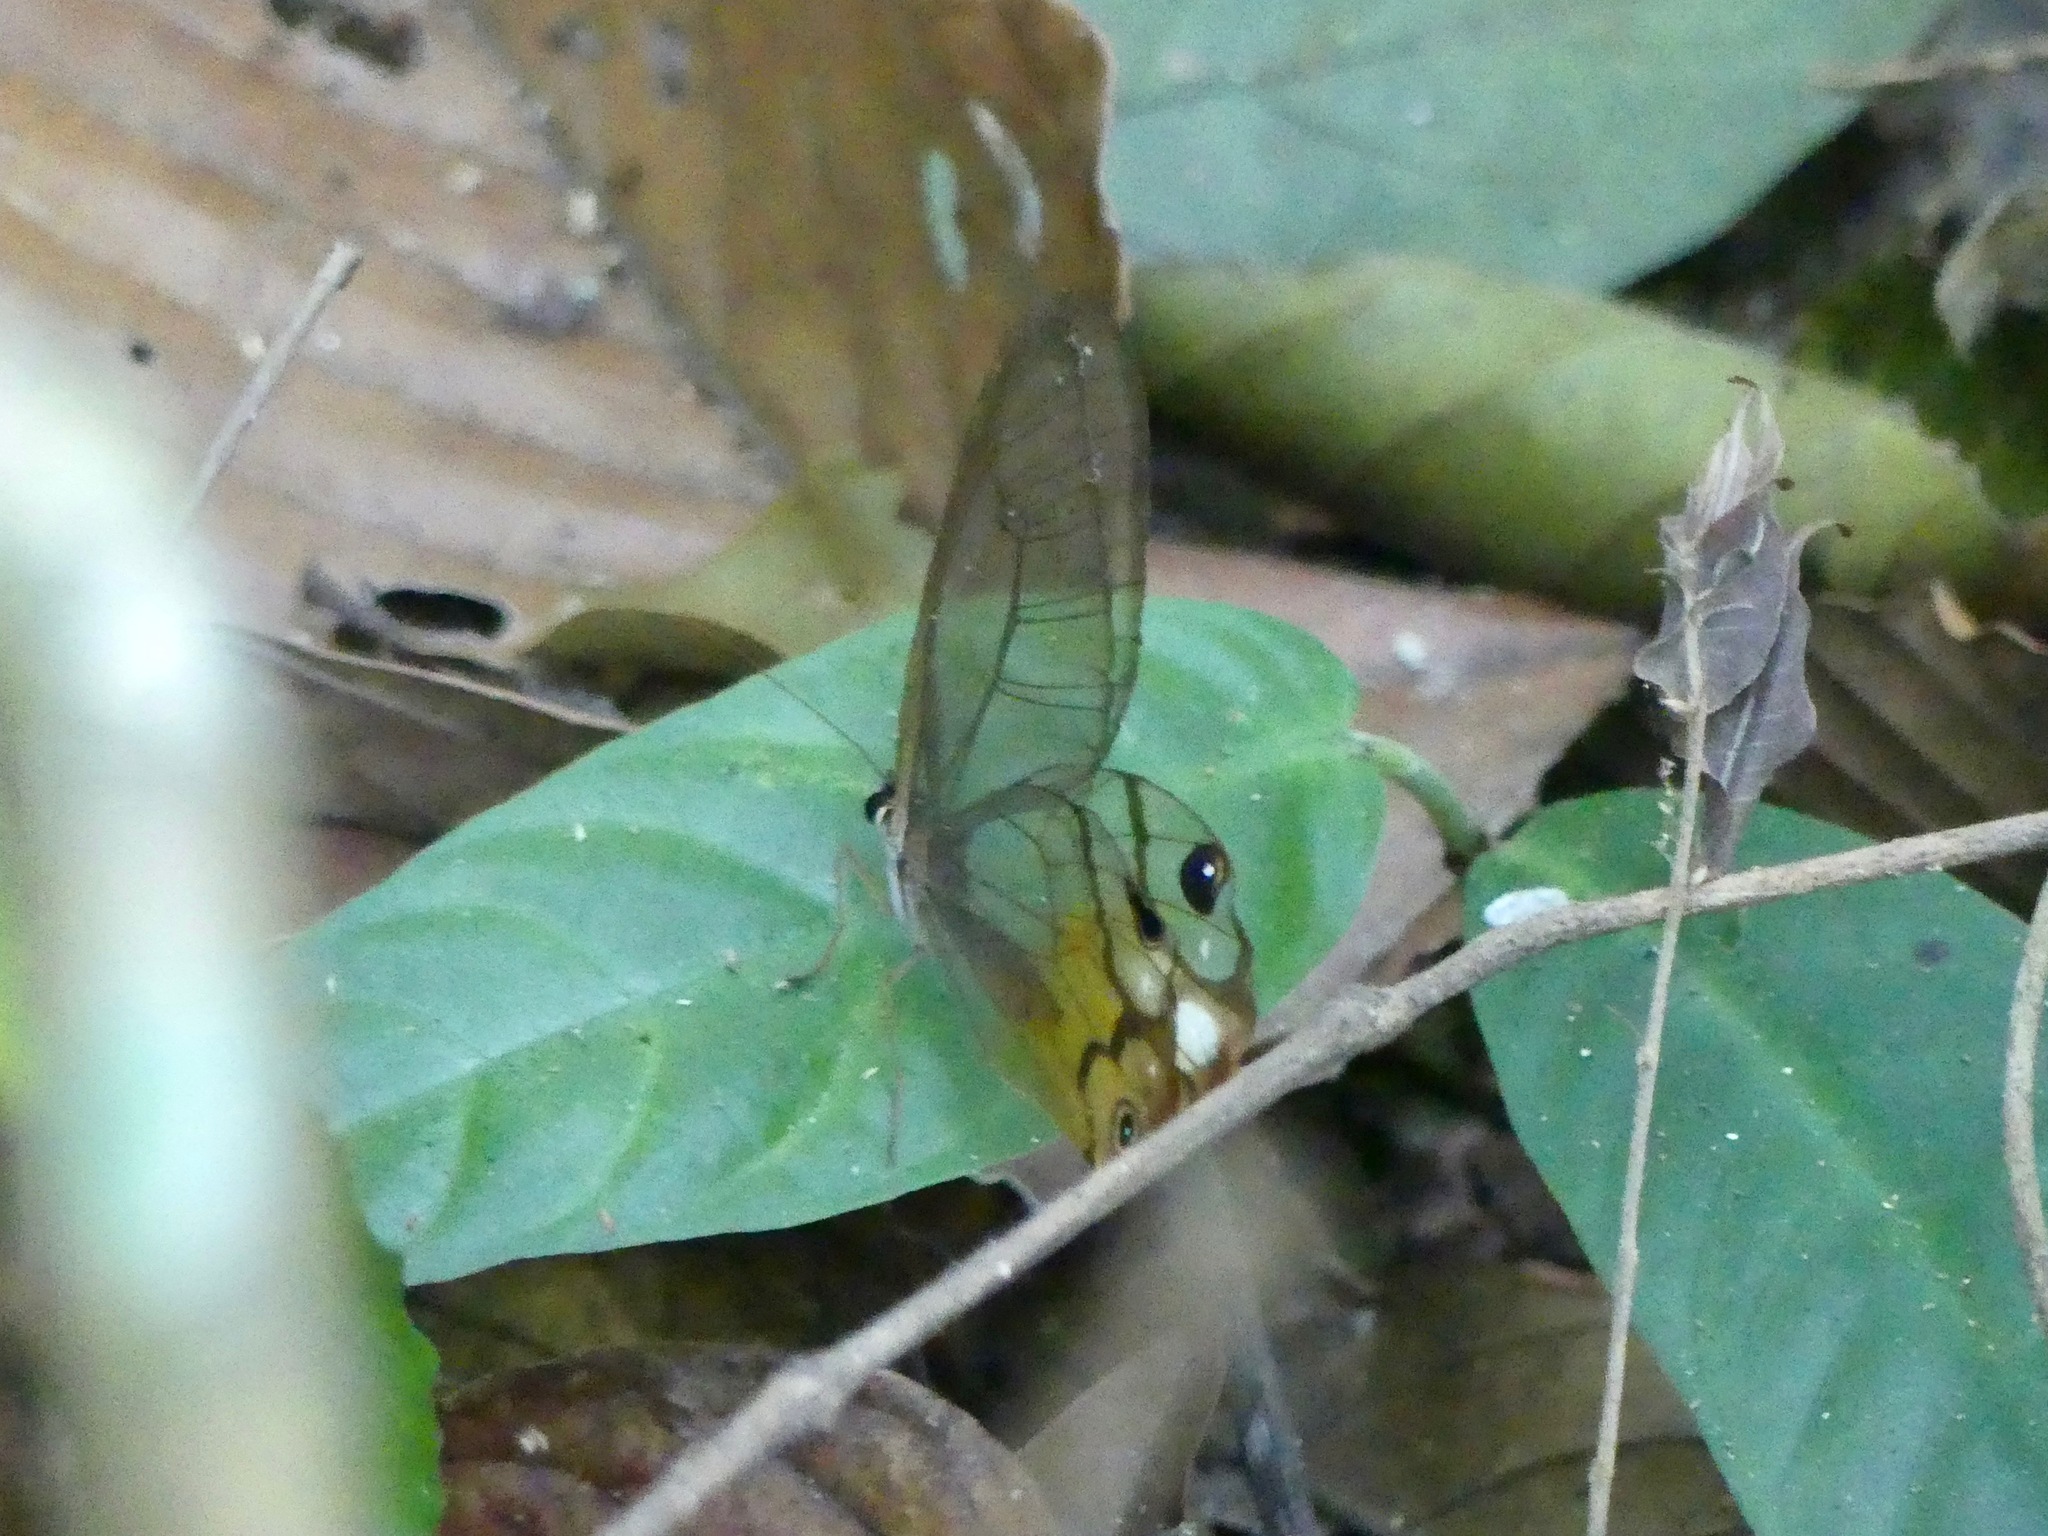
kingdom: Animalia
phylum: Arthropoda
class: Insecta
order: Lepidoptera
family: Nymphalidae
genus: Haetera
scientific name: Haetera piera
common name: Amber phantom
